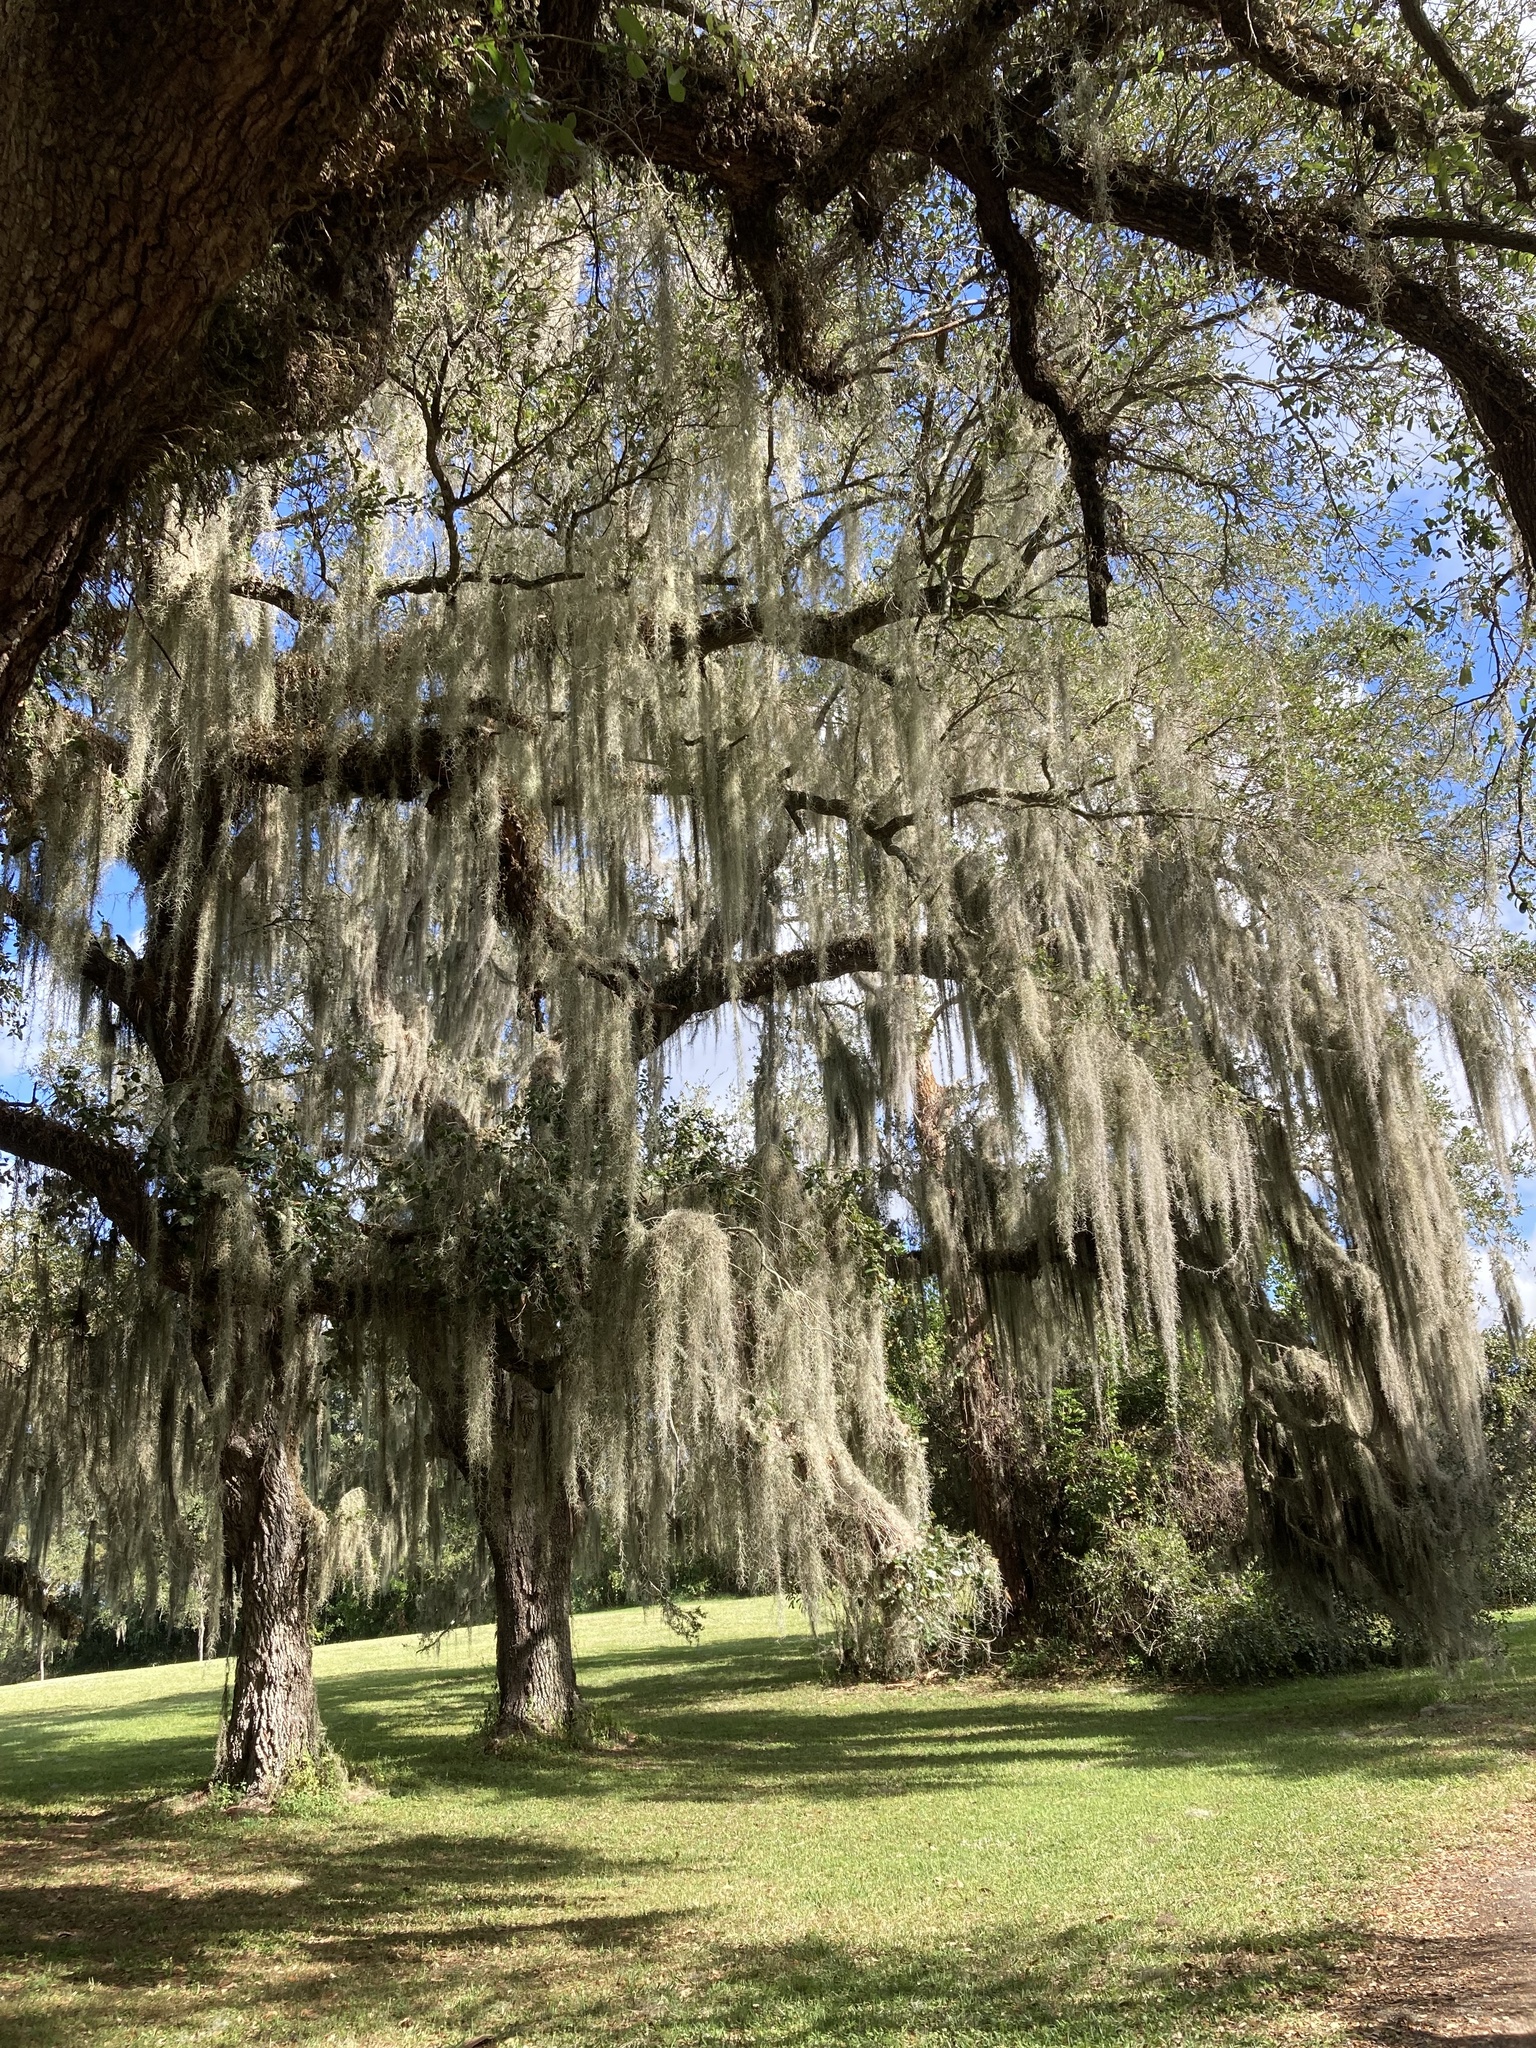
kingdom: Plantae
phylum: Tracheophyta
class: Liliopsida
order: Poales
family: Bromeliaceae
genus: Tillandsia
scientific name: Tillandsia usneoides
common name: Spanish moss
